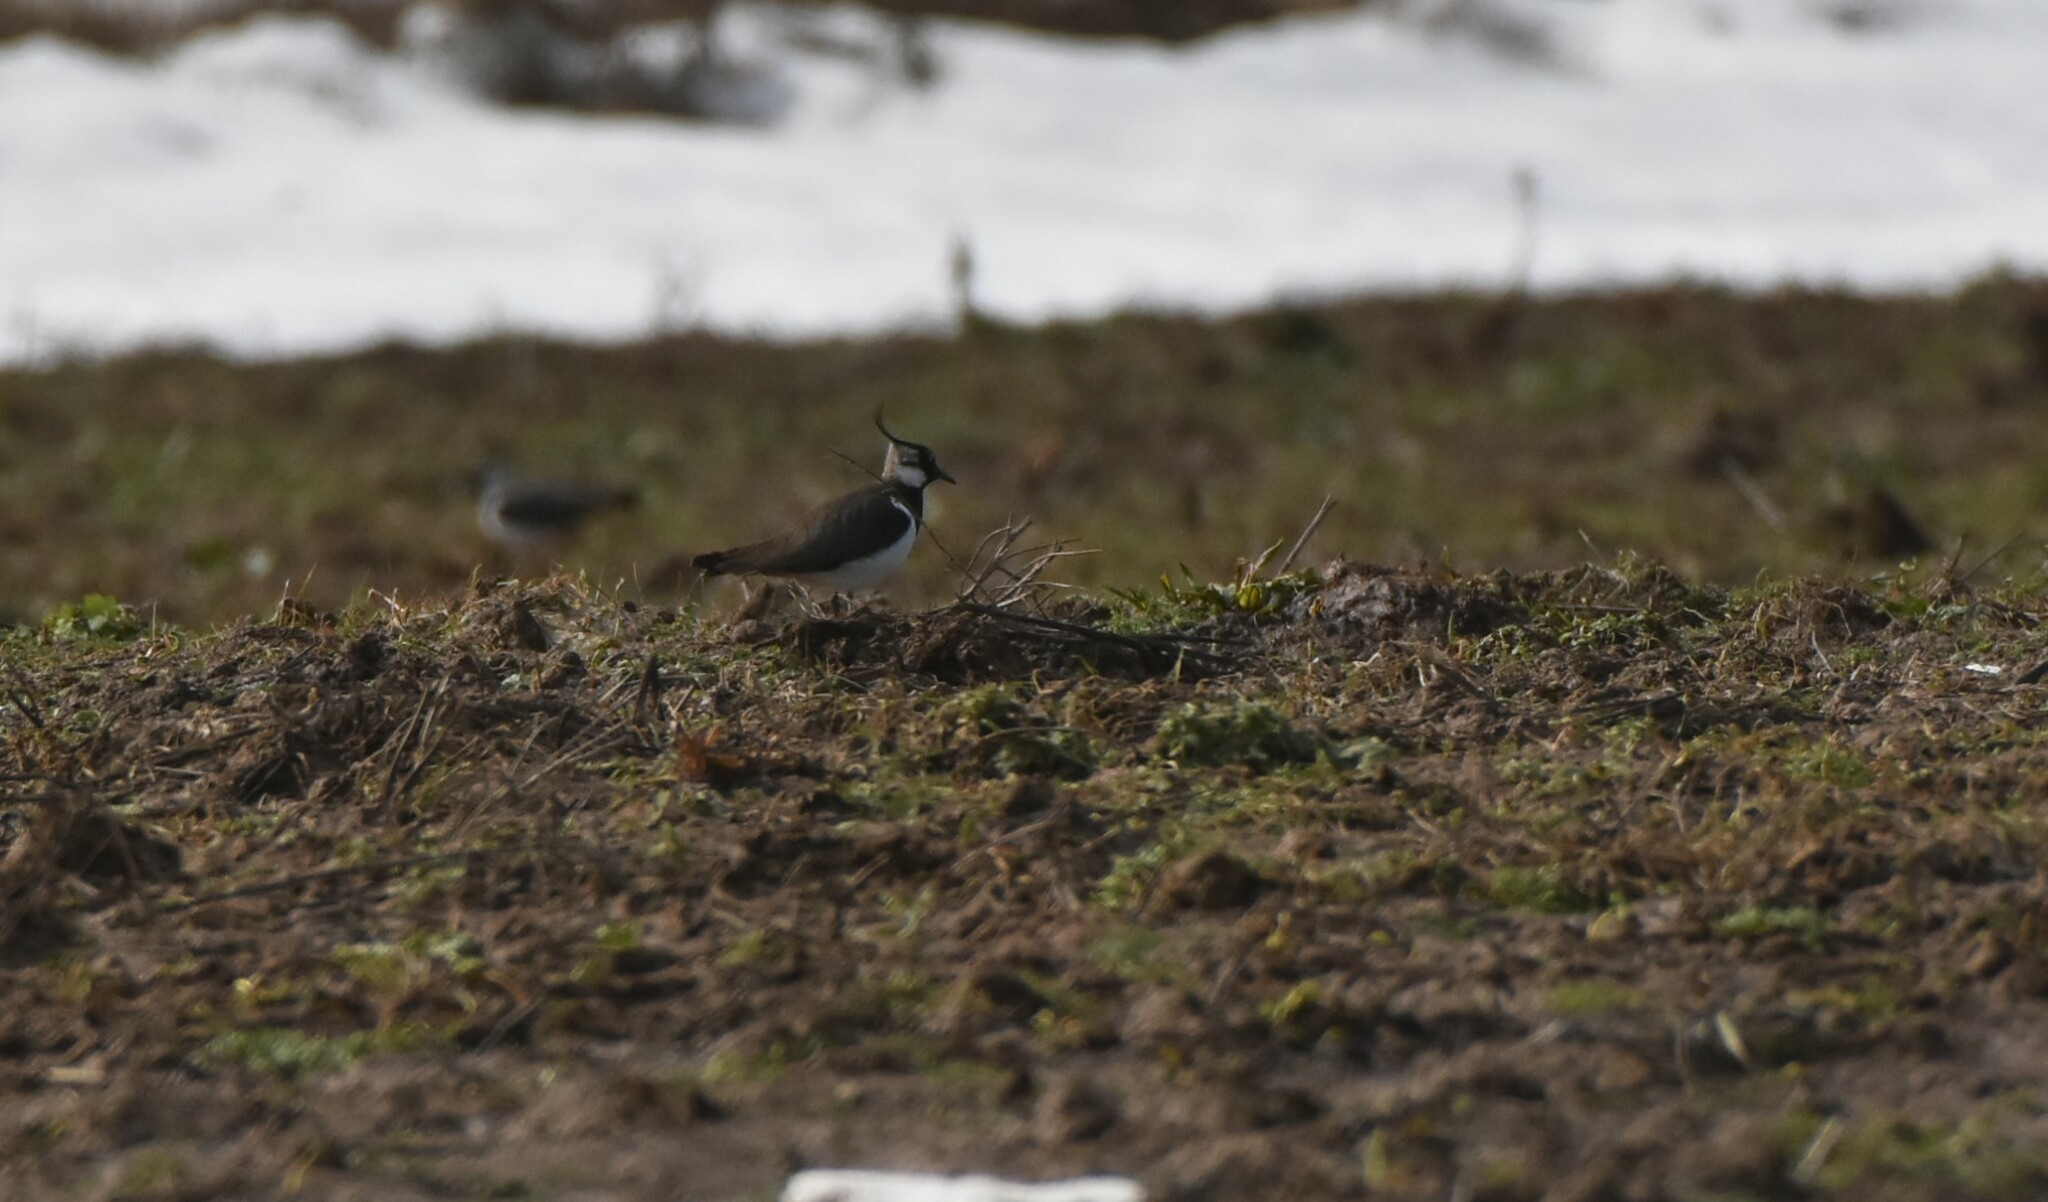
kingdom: Animalia
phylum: Chordata
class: Aves
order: Charadriiformes
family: Charadriidae
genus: Vanellus
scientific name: Vanellus vanellus
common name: Northern lapwing
